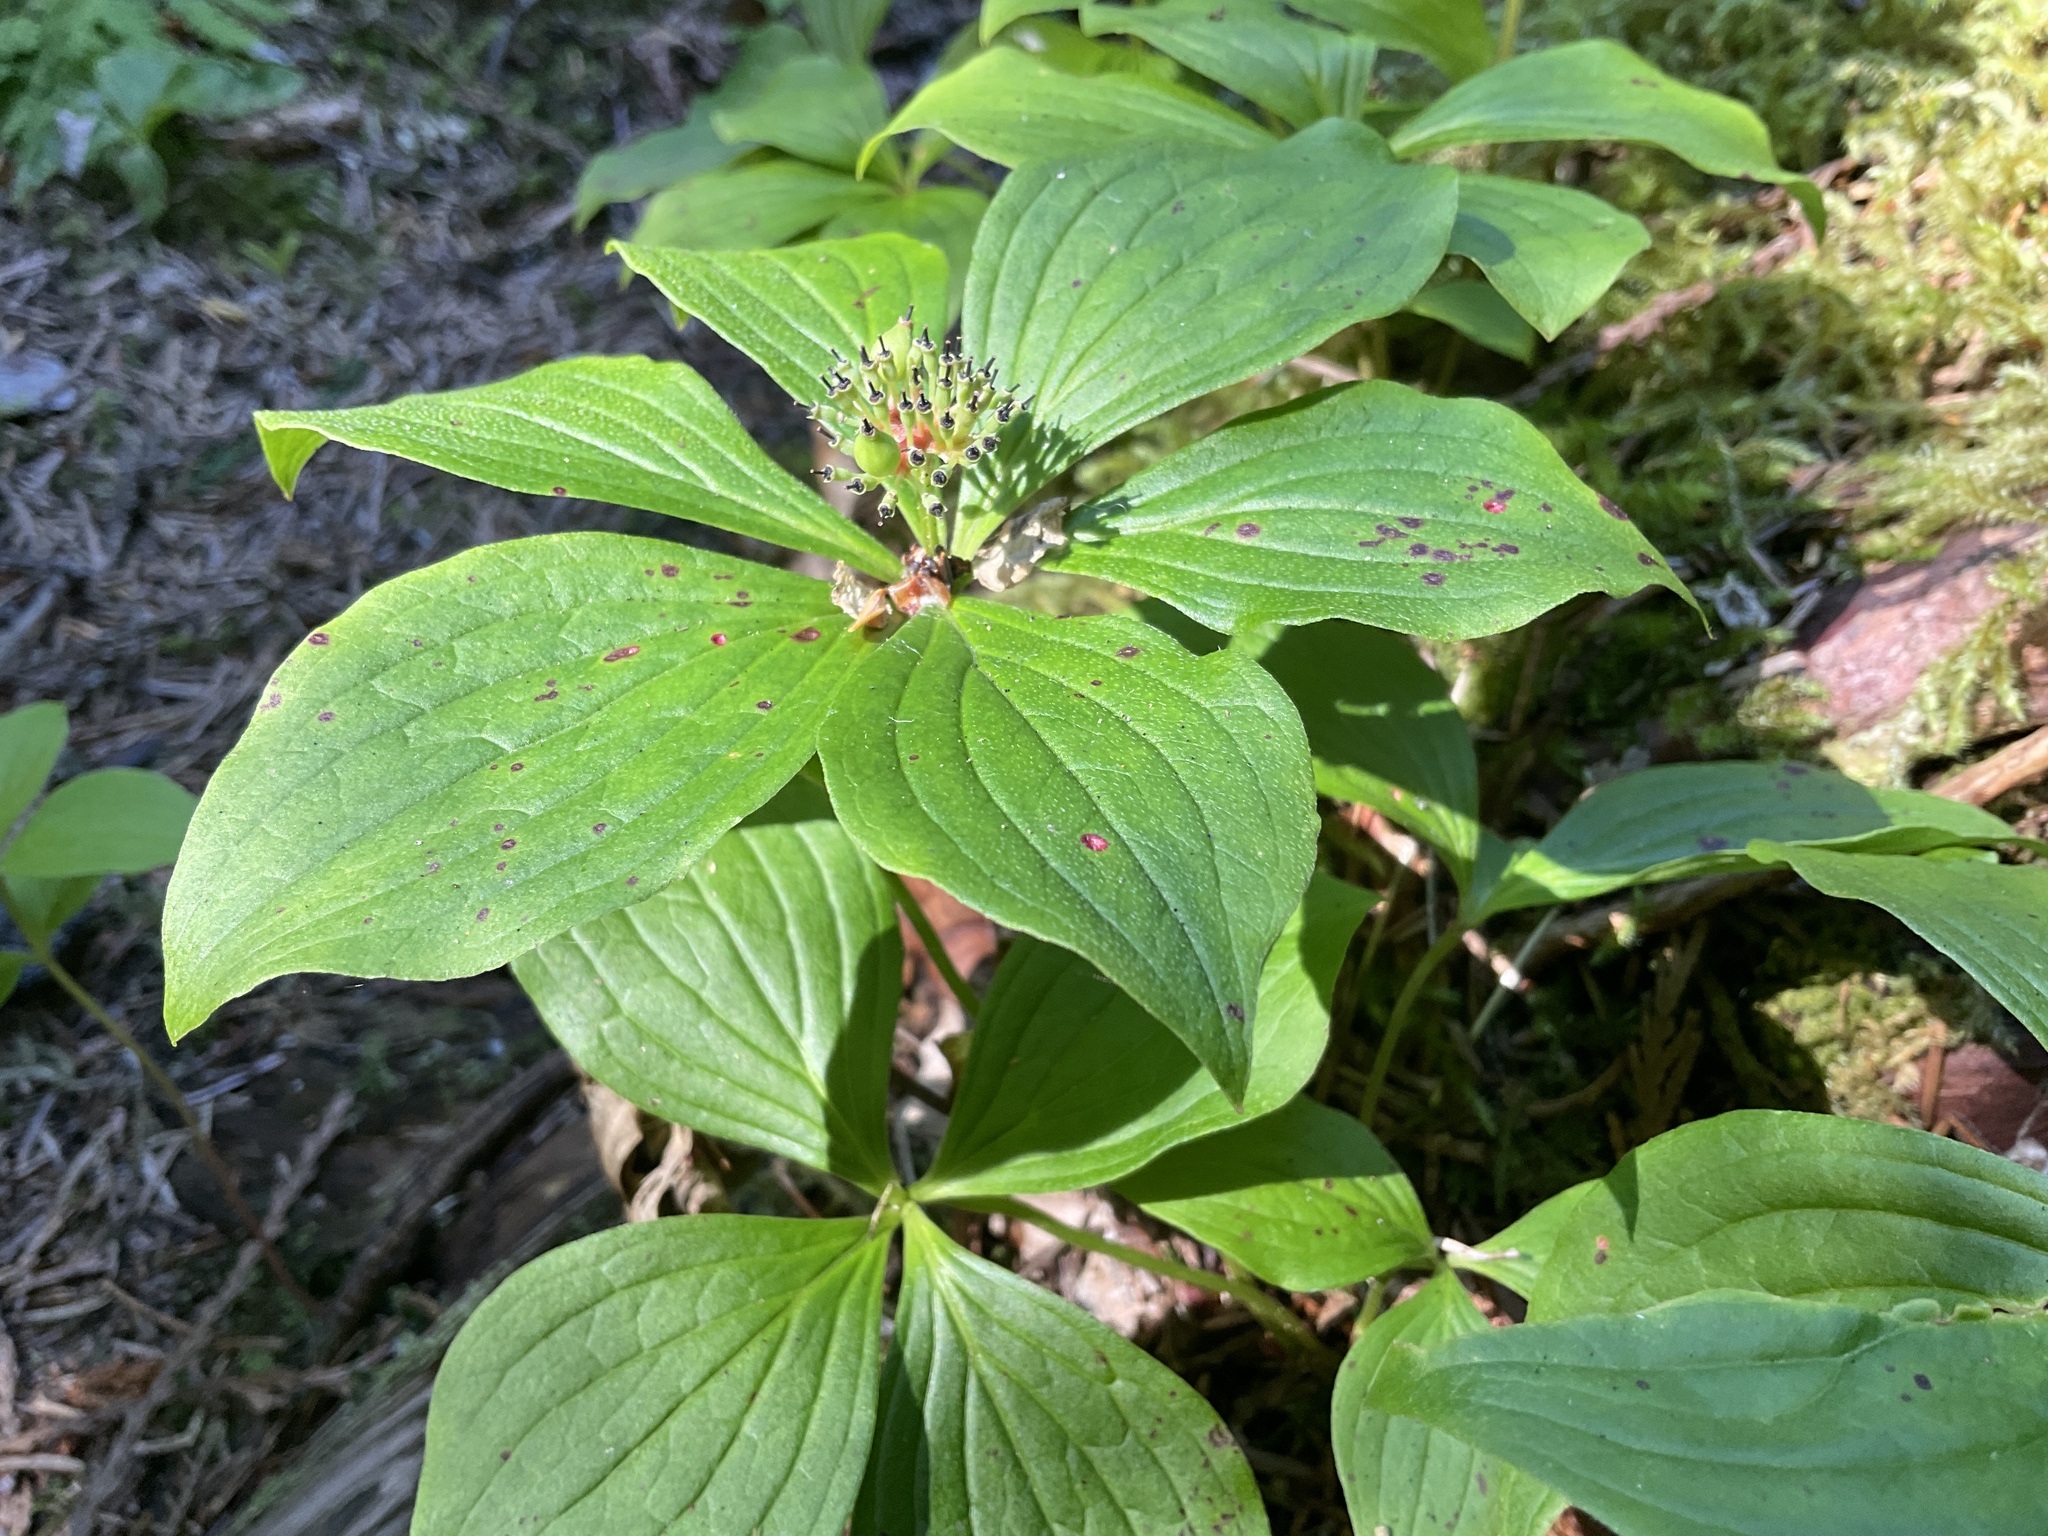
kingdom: Plantae
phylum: Tracheophyta
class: Magnoliopsida
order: Cornales
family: Cornaceae
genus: Cornus
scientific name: Cornus unalaschkensis
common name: Alaska bunchberry
